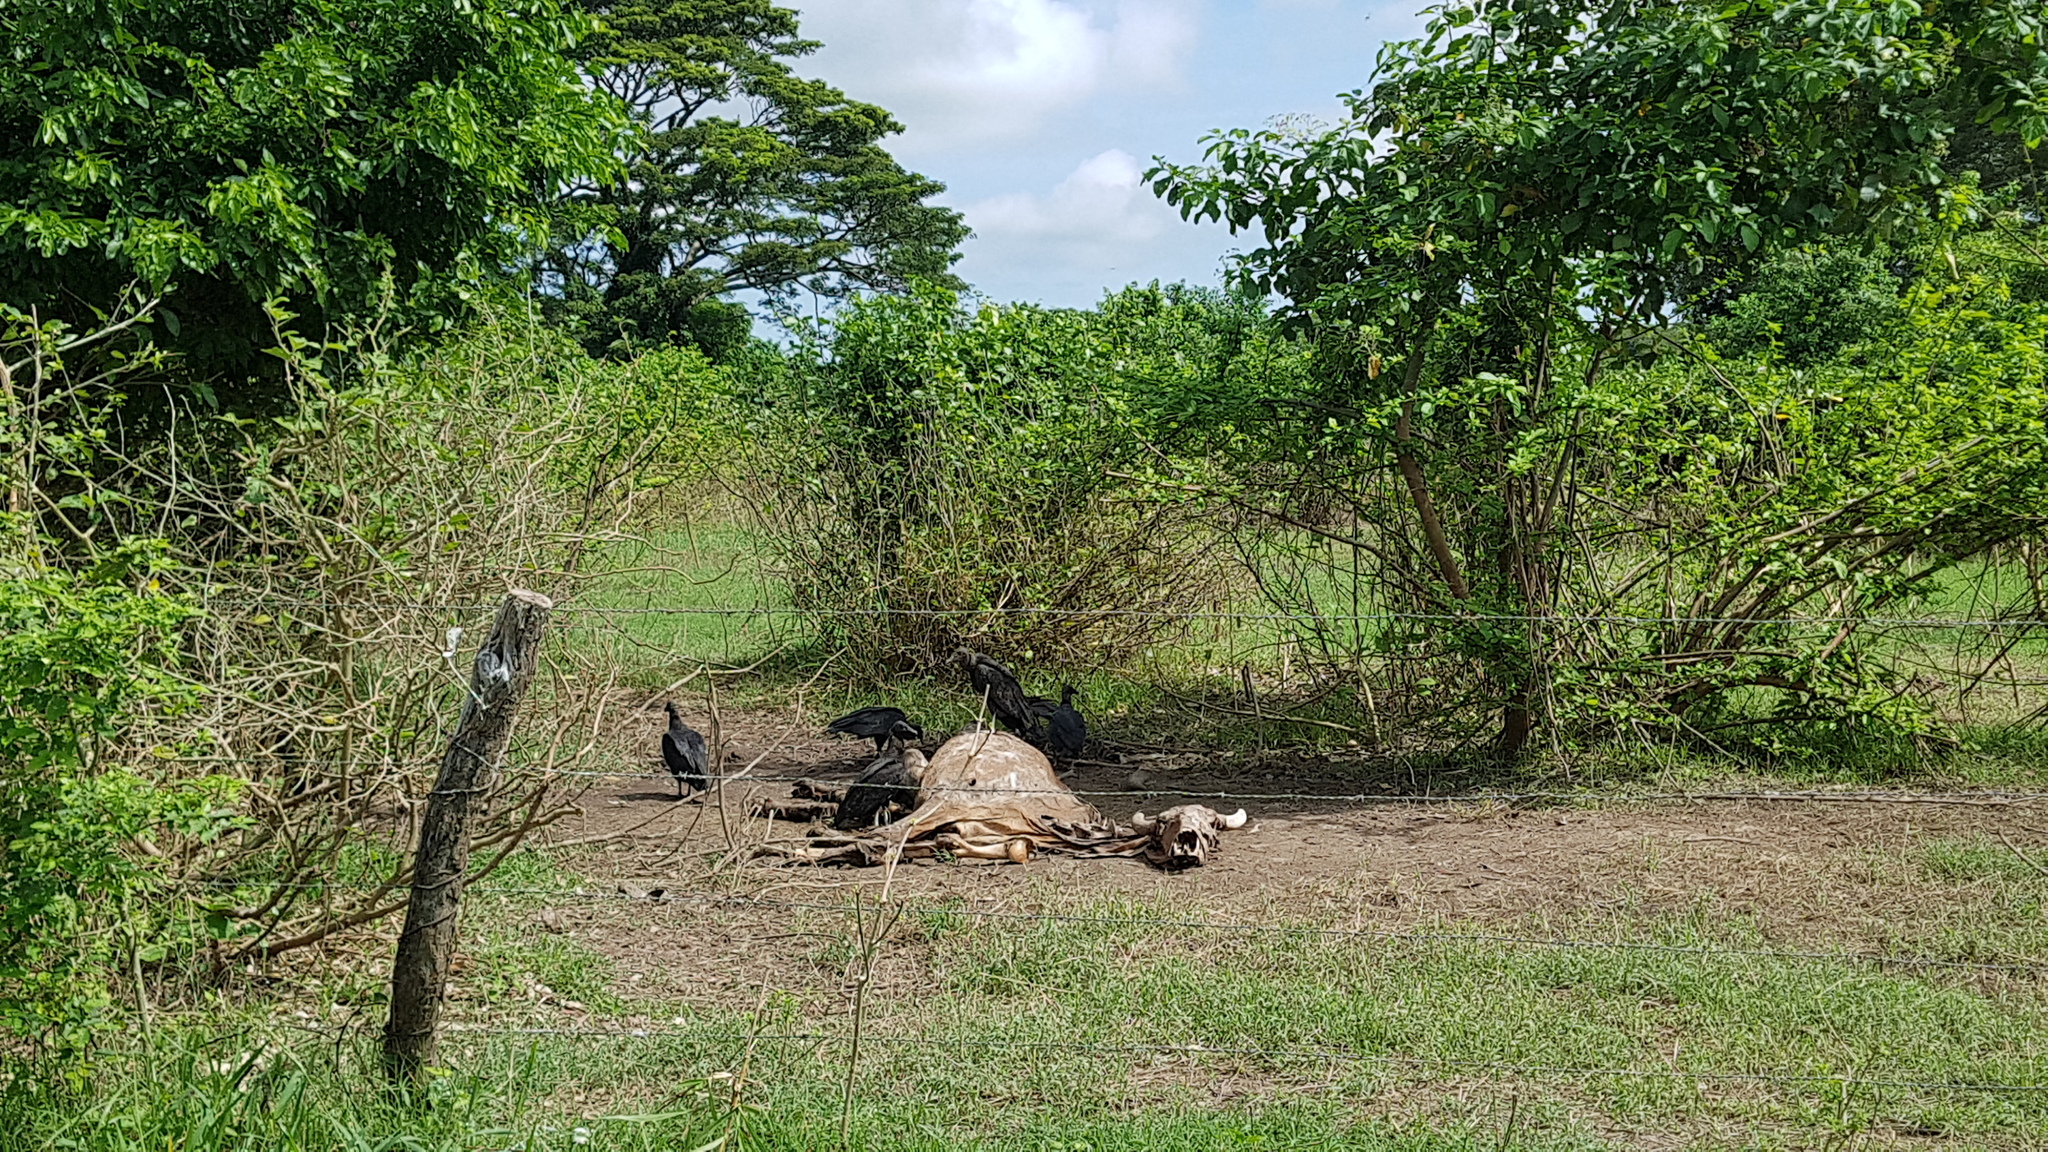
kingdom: Animalia
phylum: Chordata
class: Aves
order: Accipitriformes
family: Cathartidae
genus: Coragyps
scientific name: Coragyps atratus
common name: Black vulture
